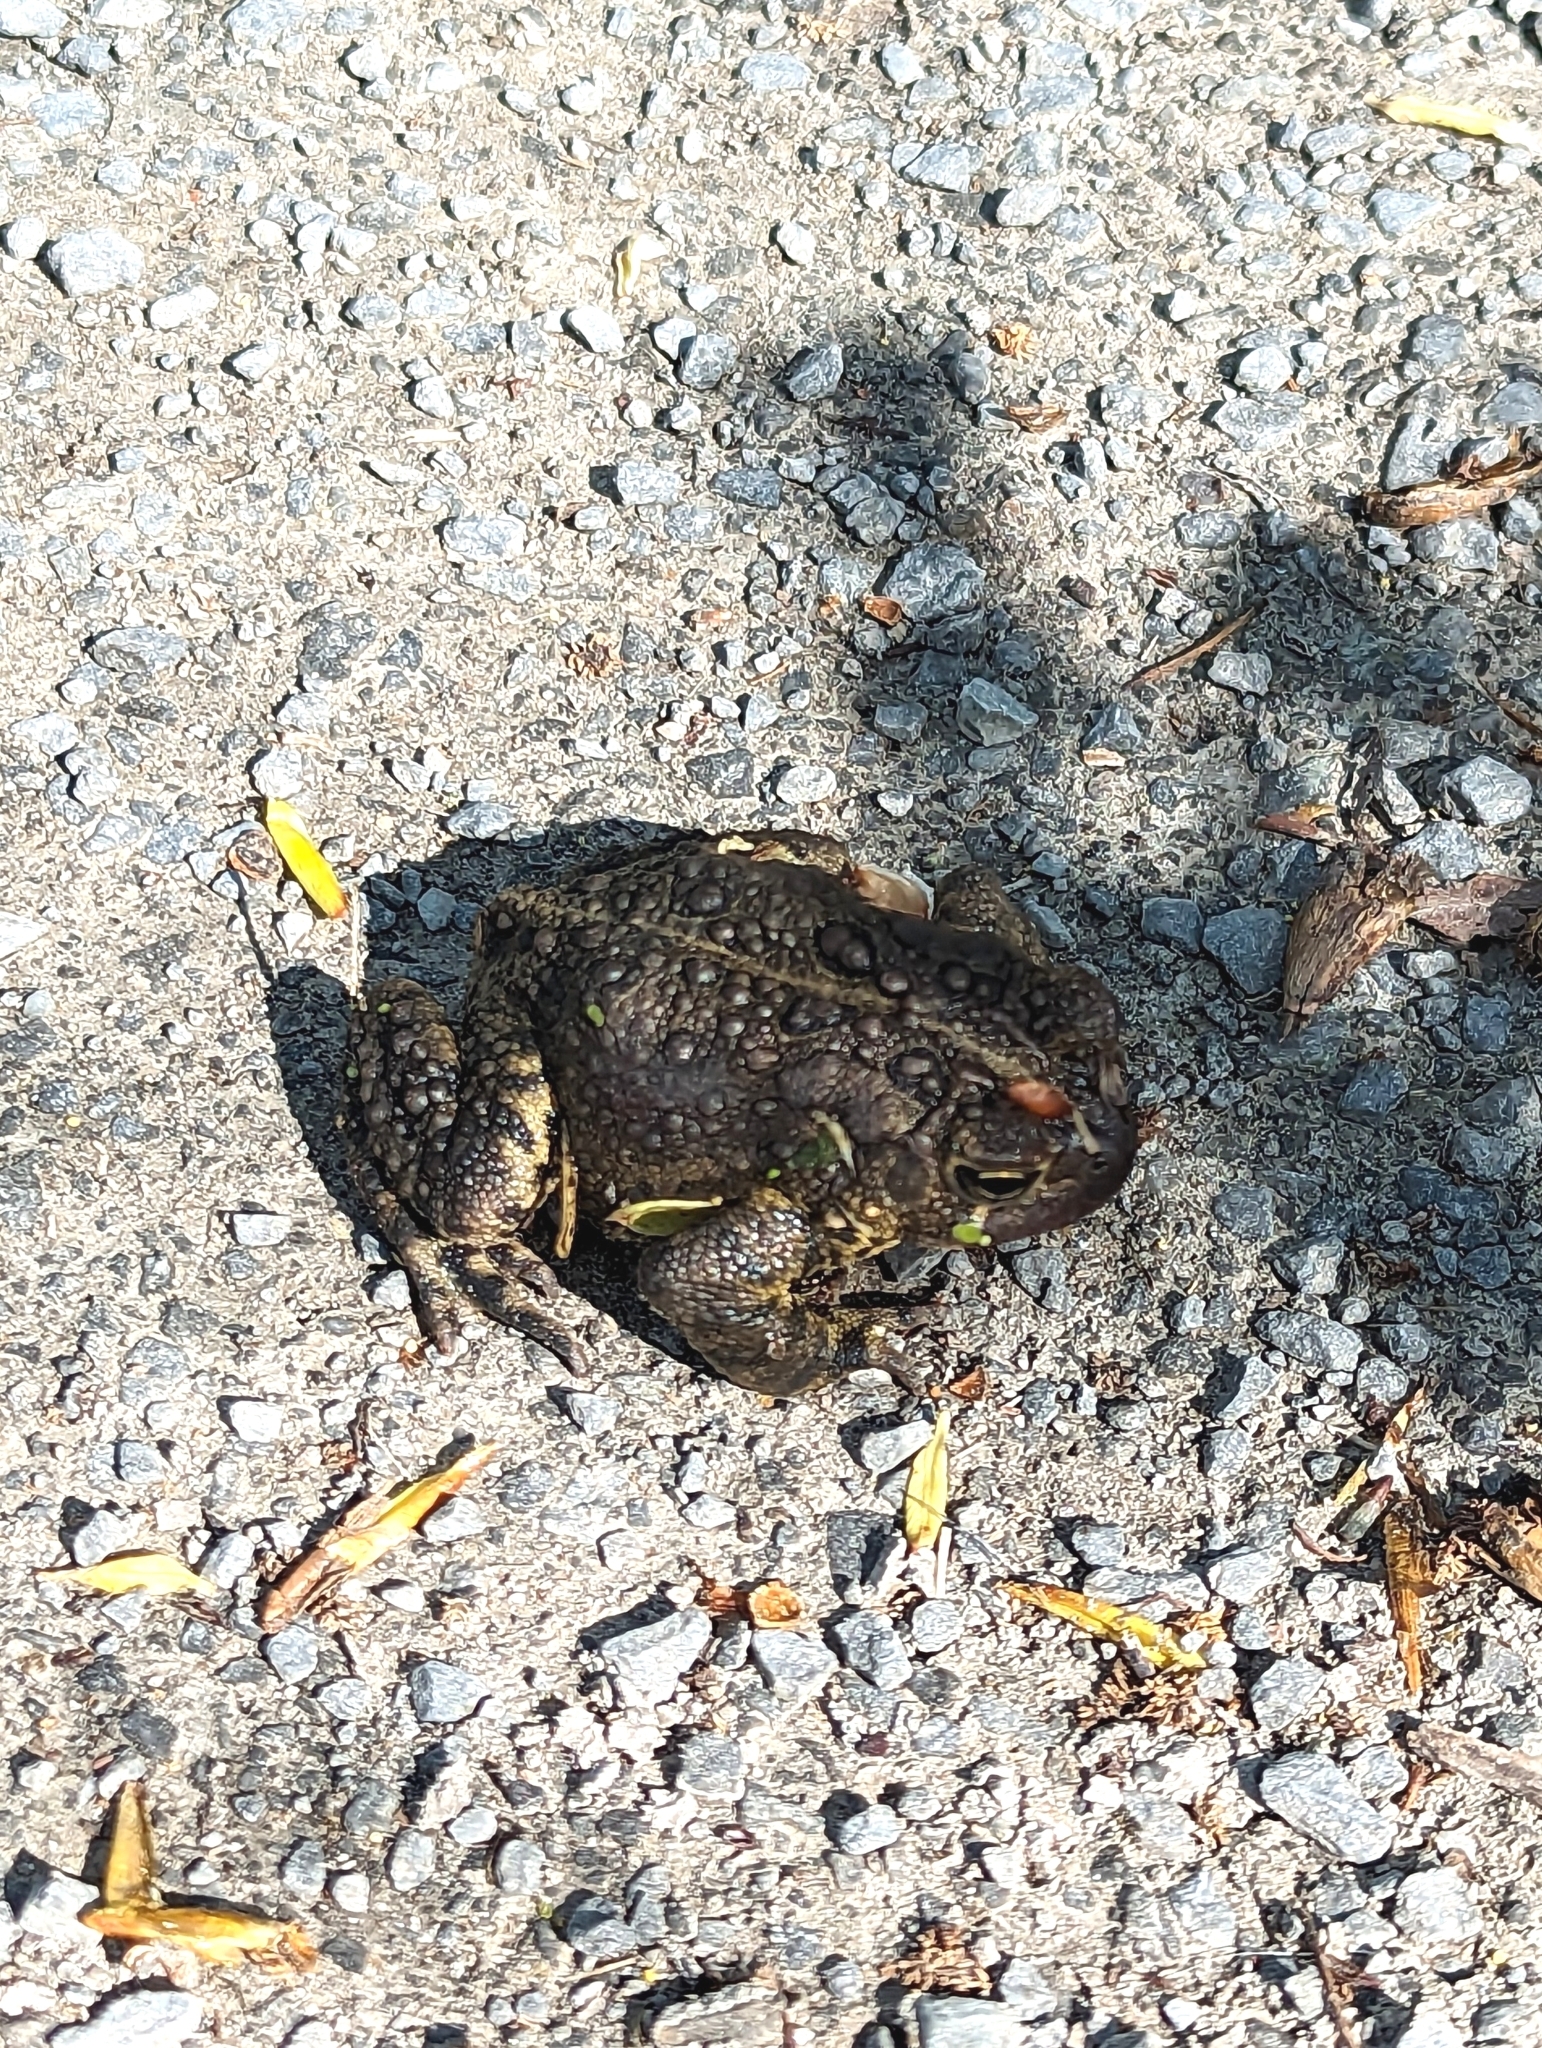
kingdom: Animalia
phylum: Chordata
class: Amphibia
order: Anura
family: Bufonidae
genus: Anaxyrus
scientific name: Anaxyrus americanus
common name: American toad
